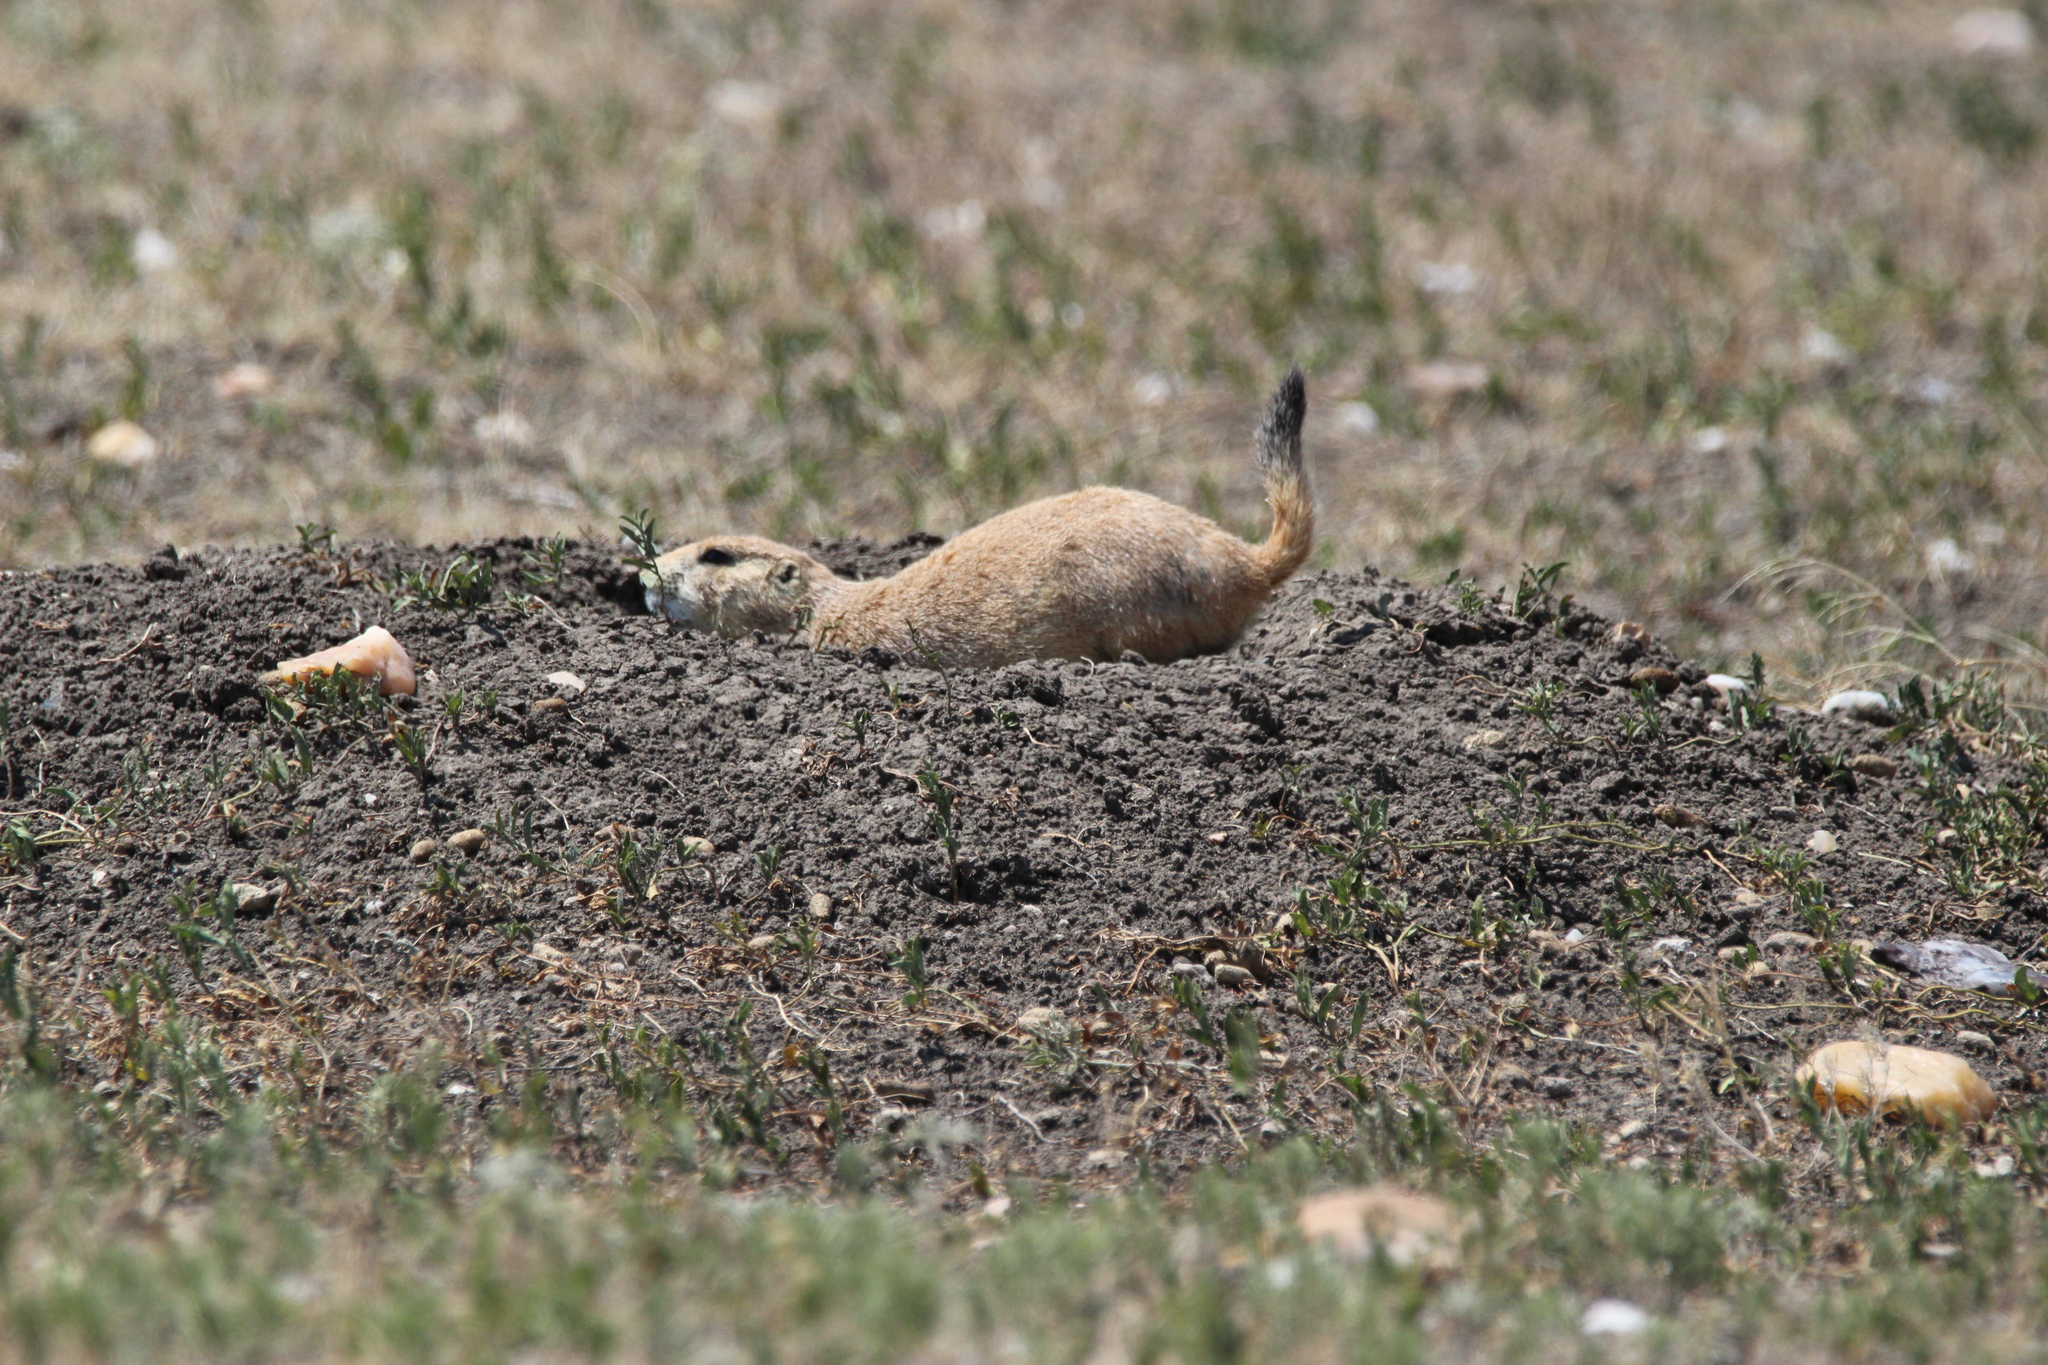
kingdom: Animalia
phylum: Chordata
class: Mammalia
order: Rodentia
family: Sciuridae
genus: Cynomys
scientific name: Cynomys ludovicianus
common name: Black-tailed prairie dog
